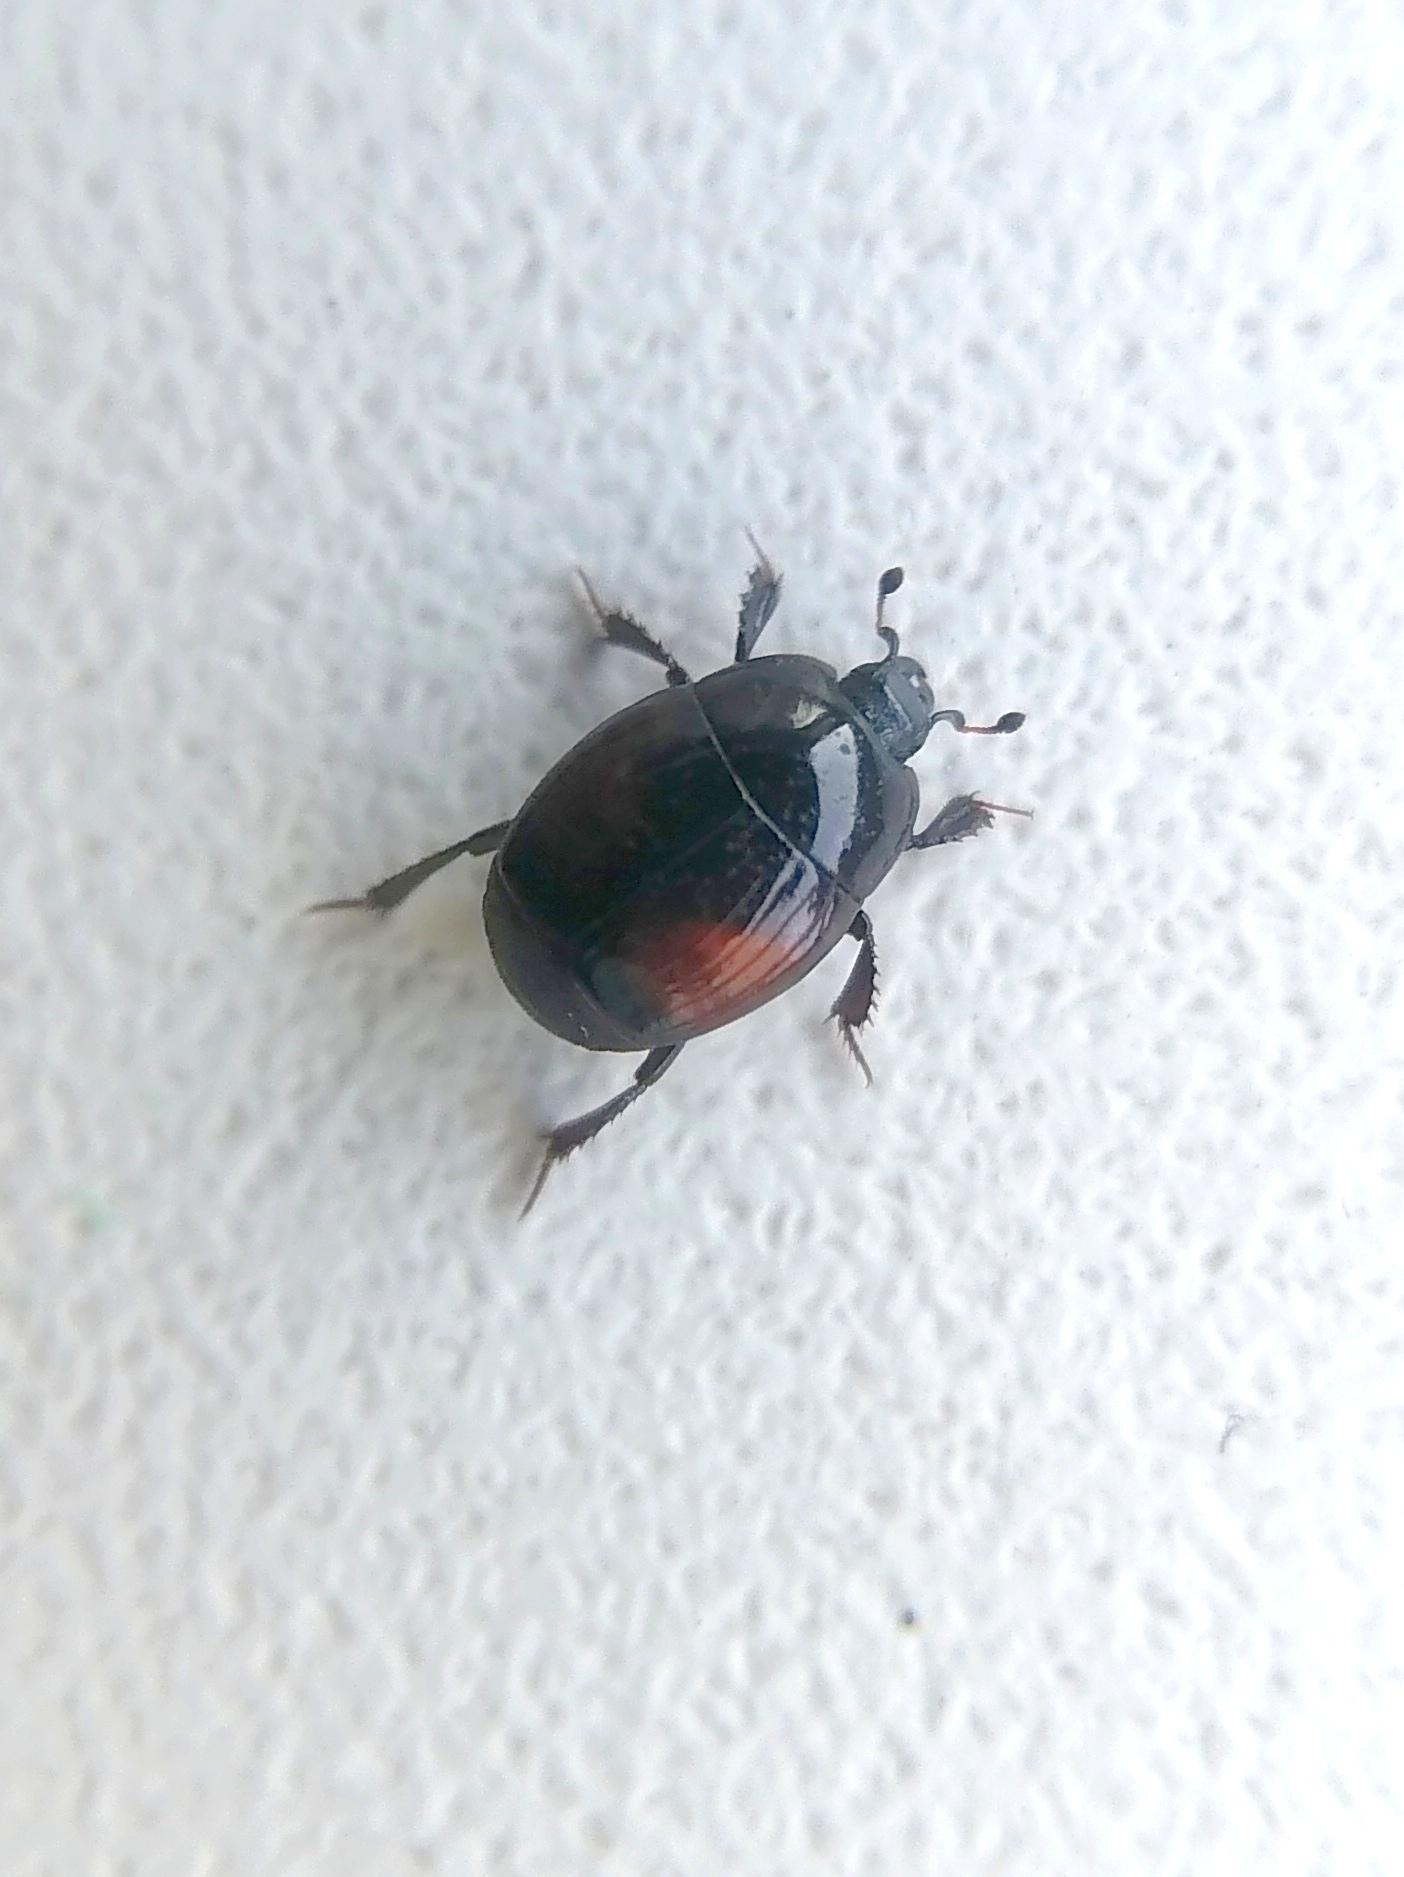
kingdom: Animalia
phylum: Arthropoda
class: Insecta
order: Coleoptera
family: Histeridae
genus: Margarinotus
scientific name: Margarinotus purpurascens
